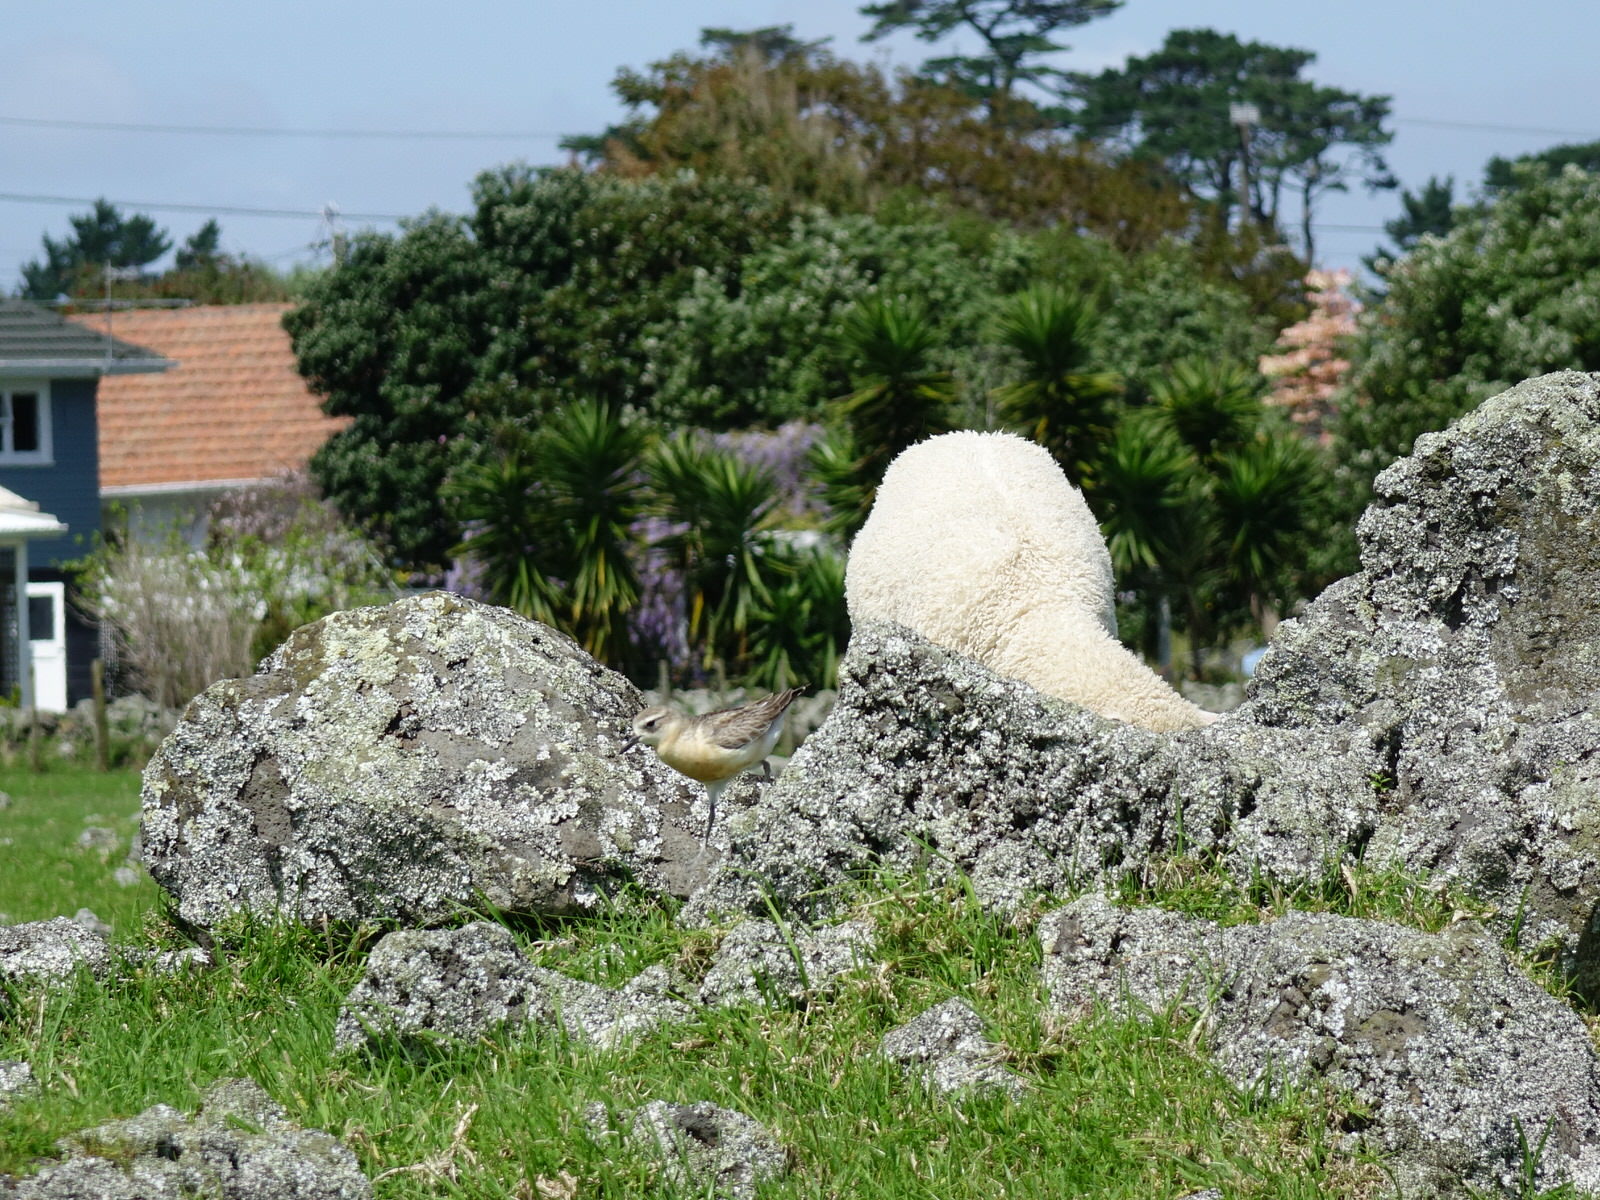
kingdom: Animalia
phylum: Chordata
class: Aves
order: Charadriiformes
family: Charadriidae
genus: Anarhynchus
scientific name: Anarhynchus
